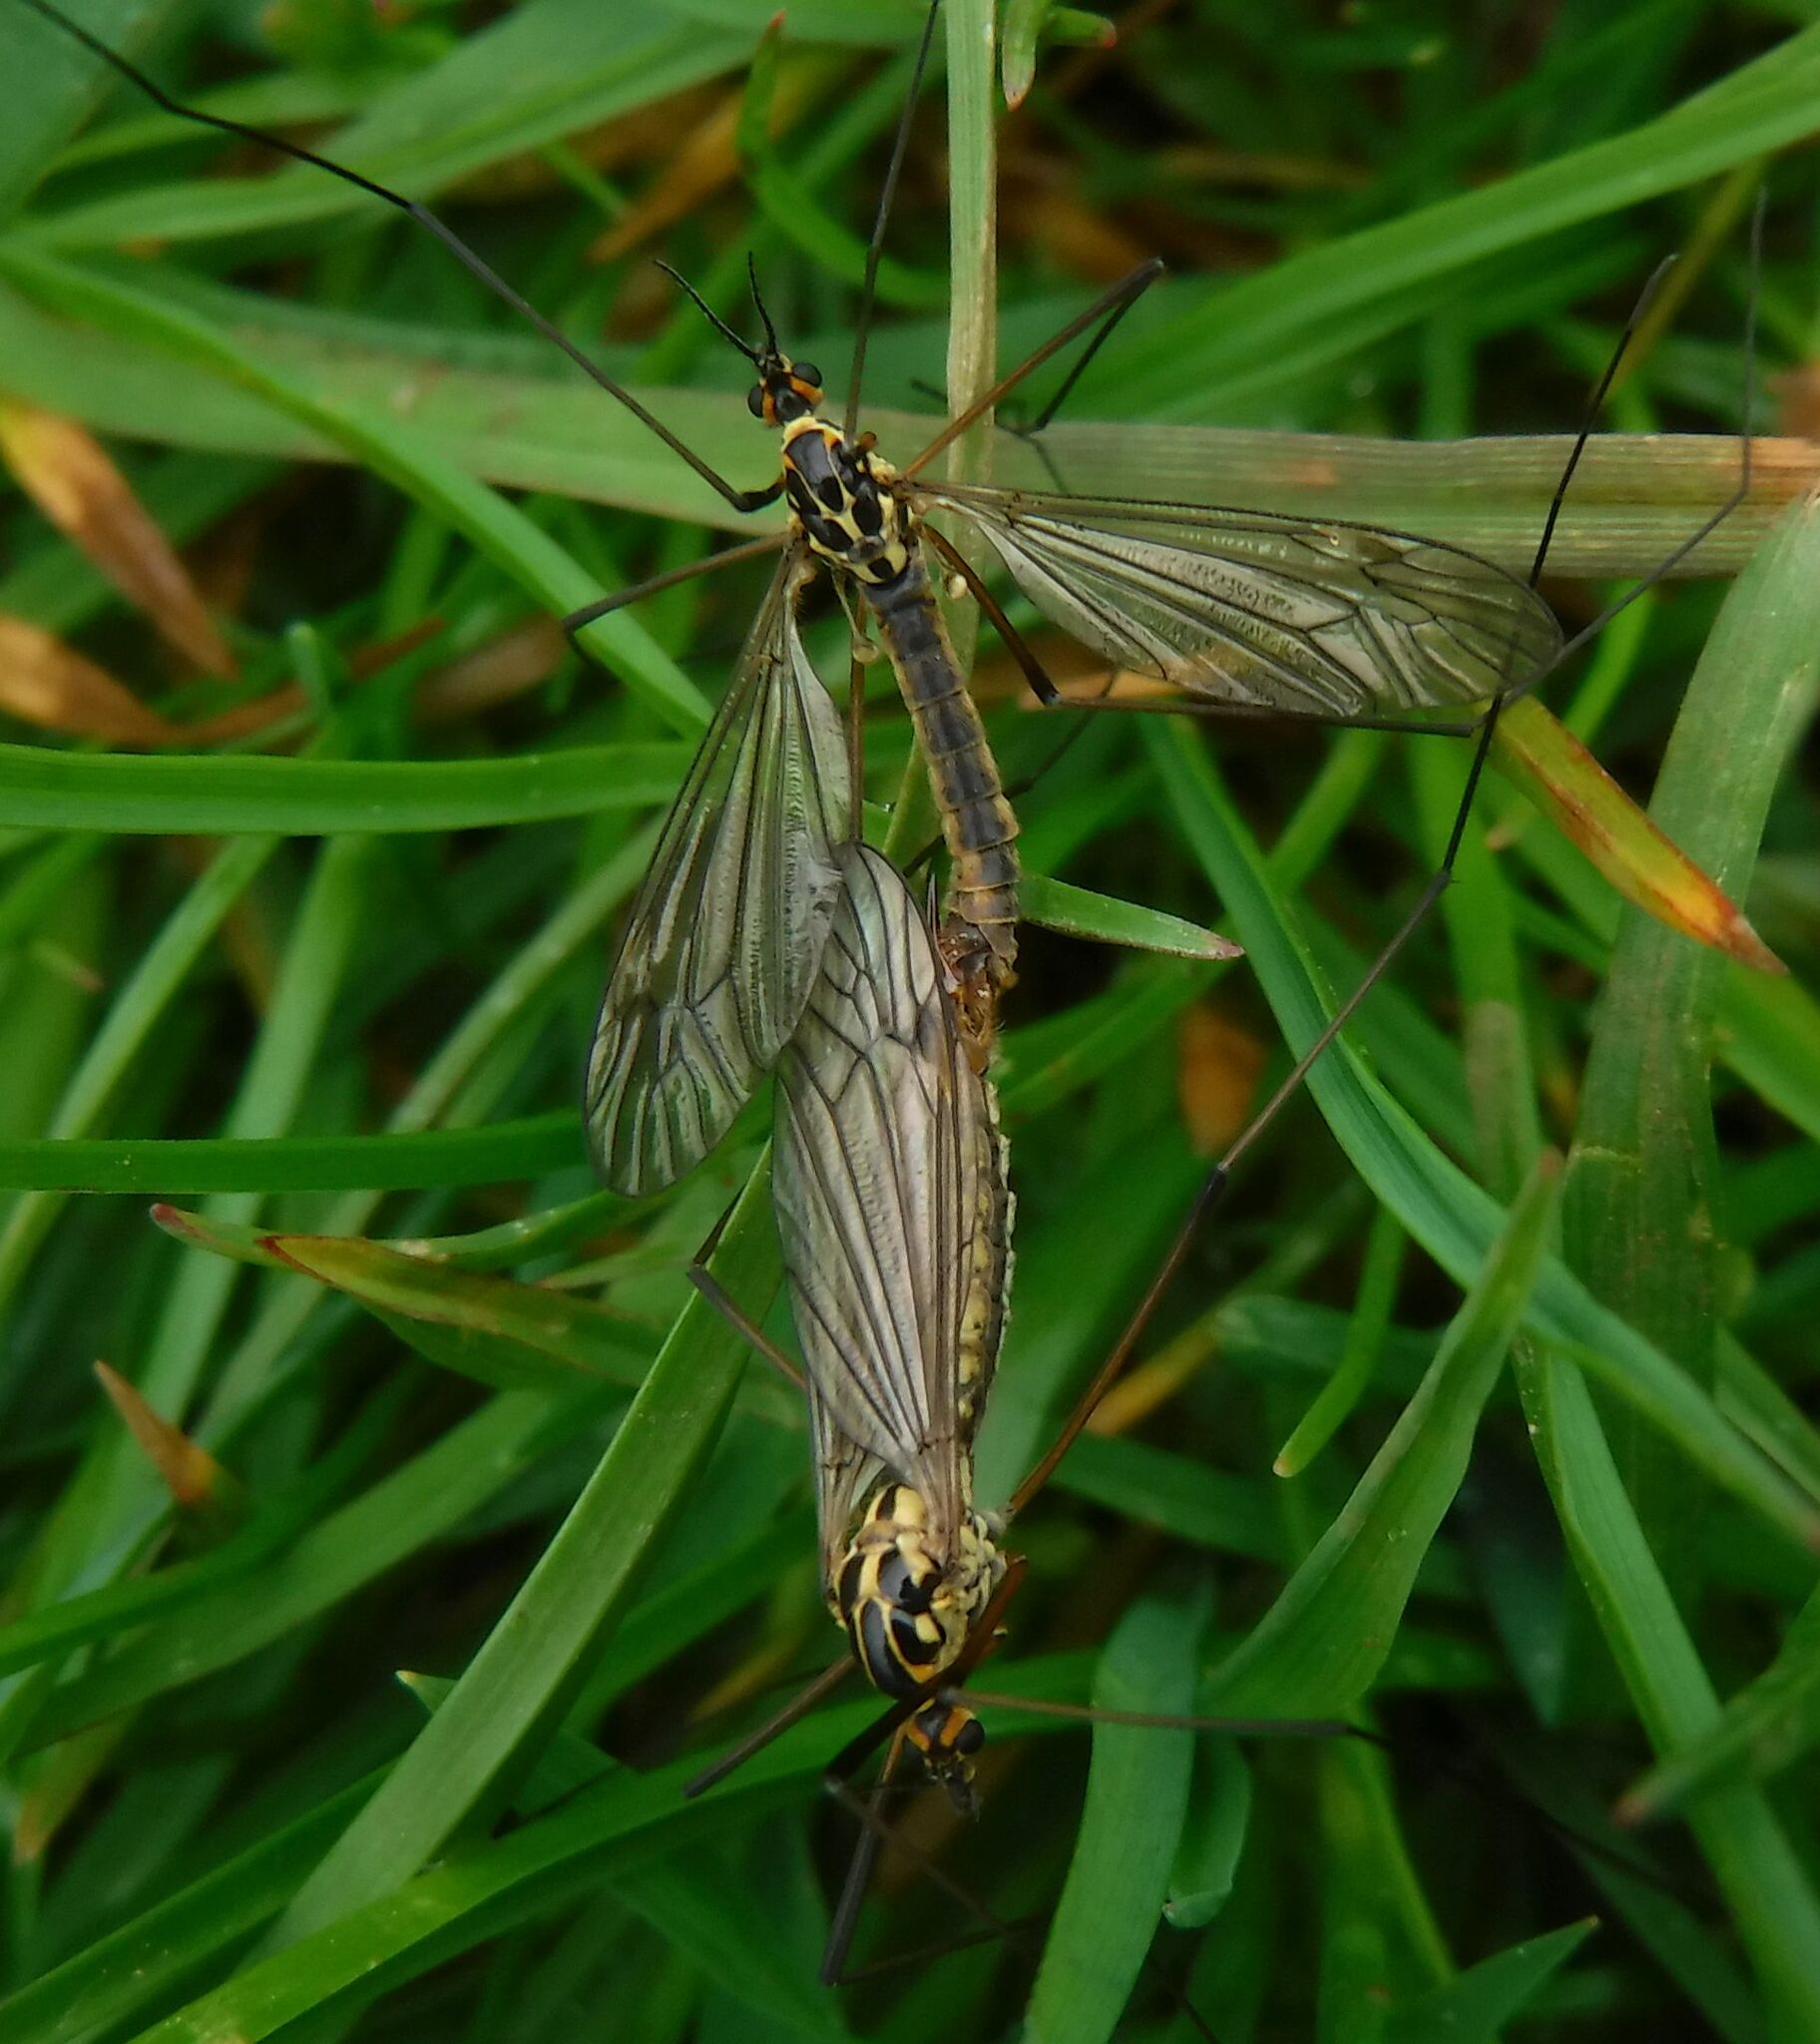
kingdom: Animalia
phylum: Arthropoda
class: Insecta
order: Diptera
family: Tipulidae
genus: Nephrotoma
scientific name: Nephrotoma appendiculata
